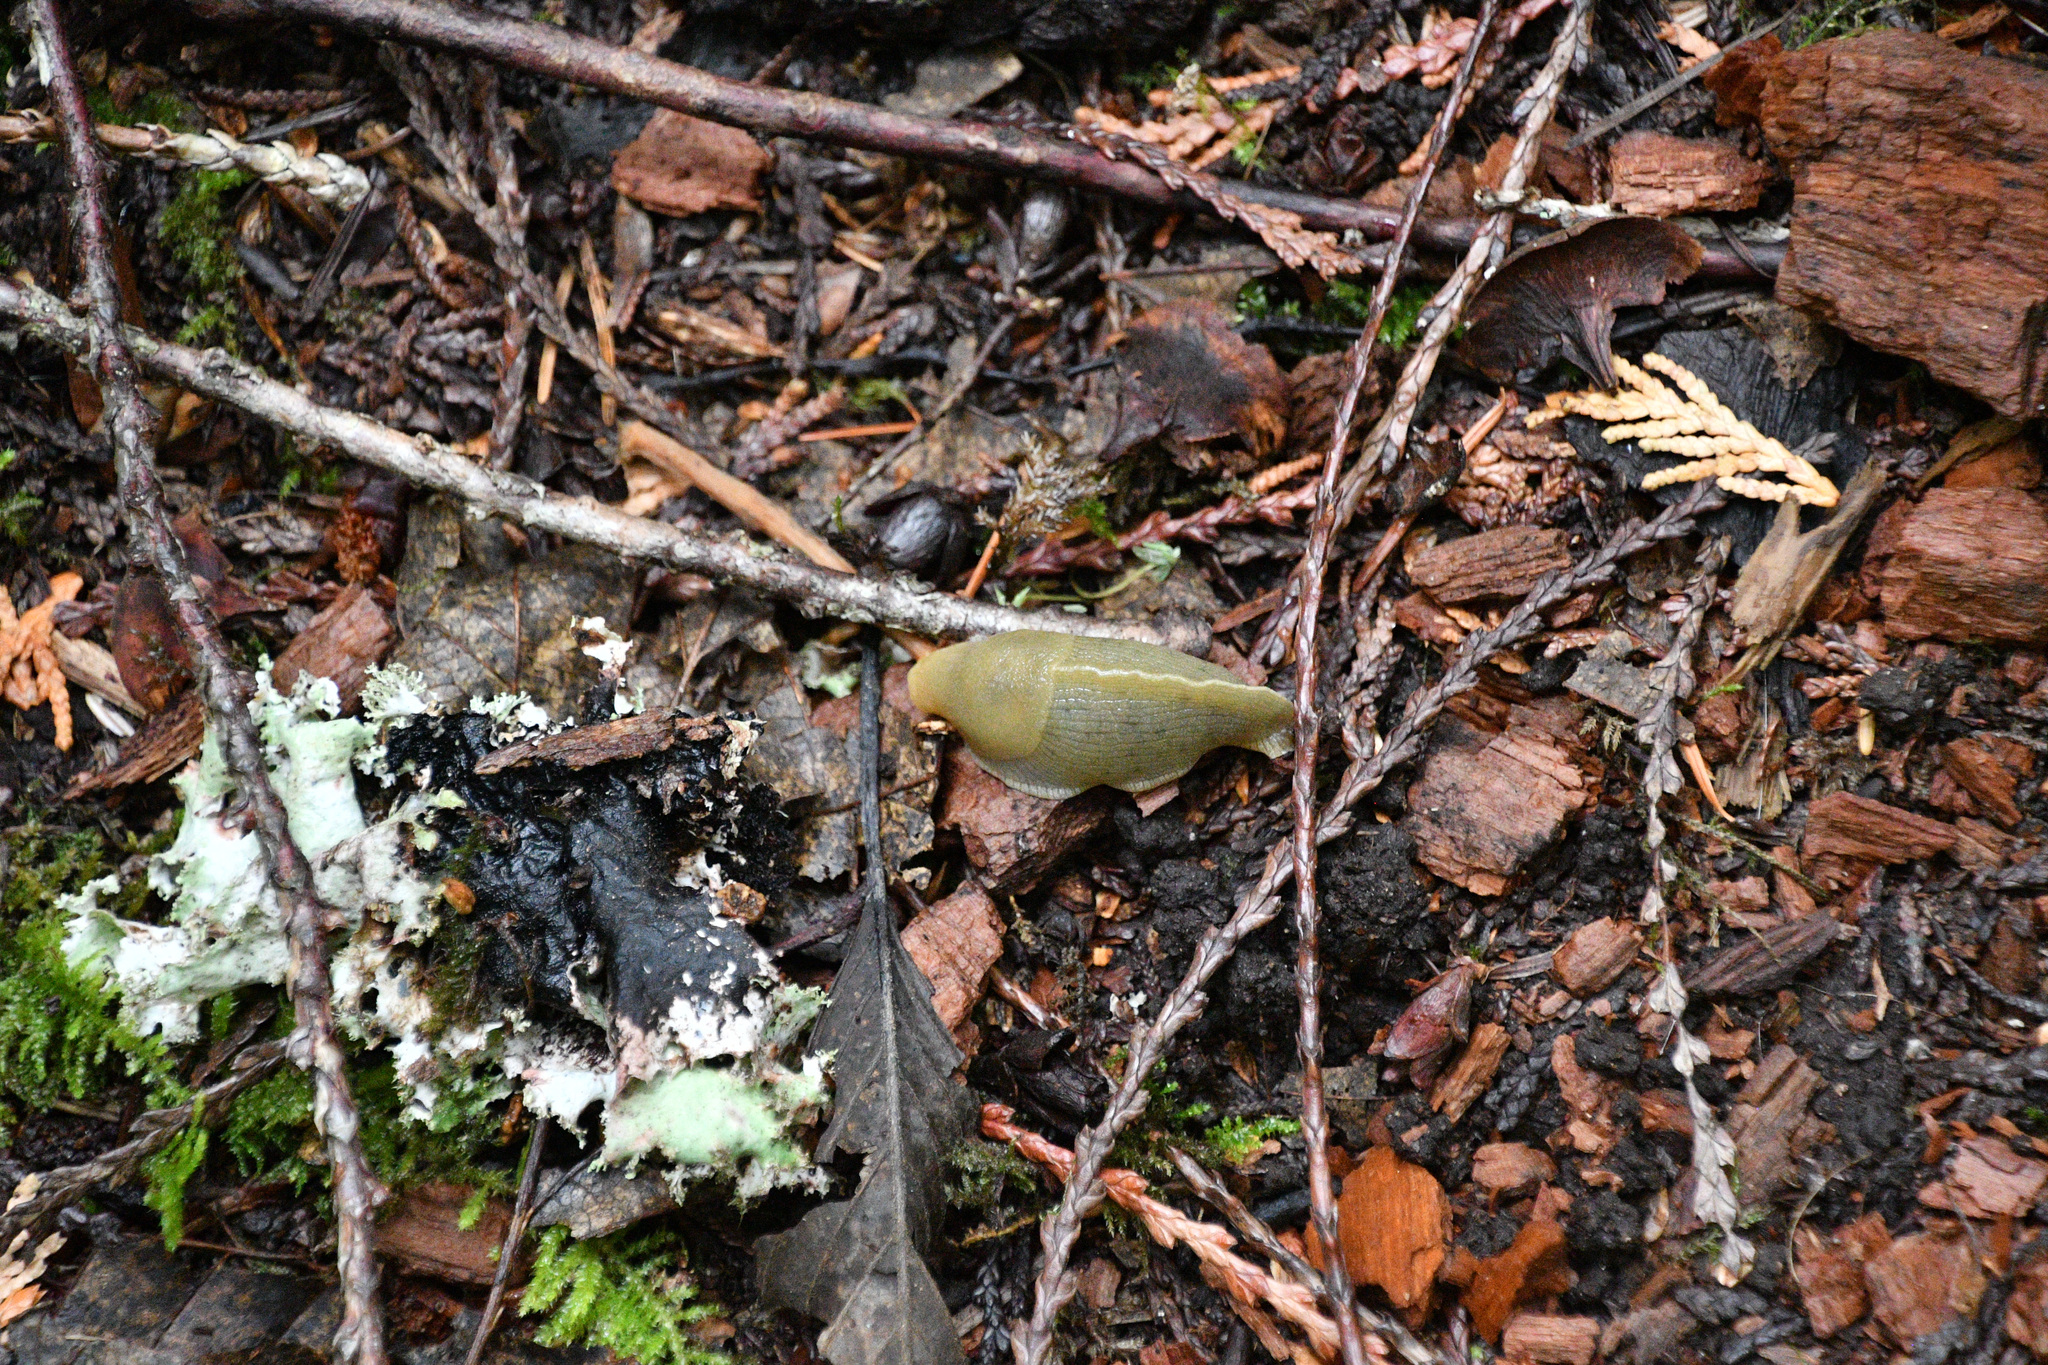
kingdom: Animalia
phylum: Mollusca
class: Gastropoda
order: Stylommatophora
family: Ariolimacidae
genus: Ariolimax
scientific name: Ariolimax columbianus
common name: Pacific banana slug
